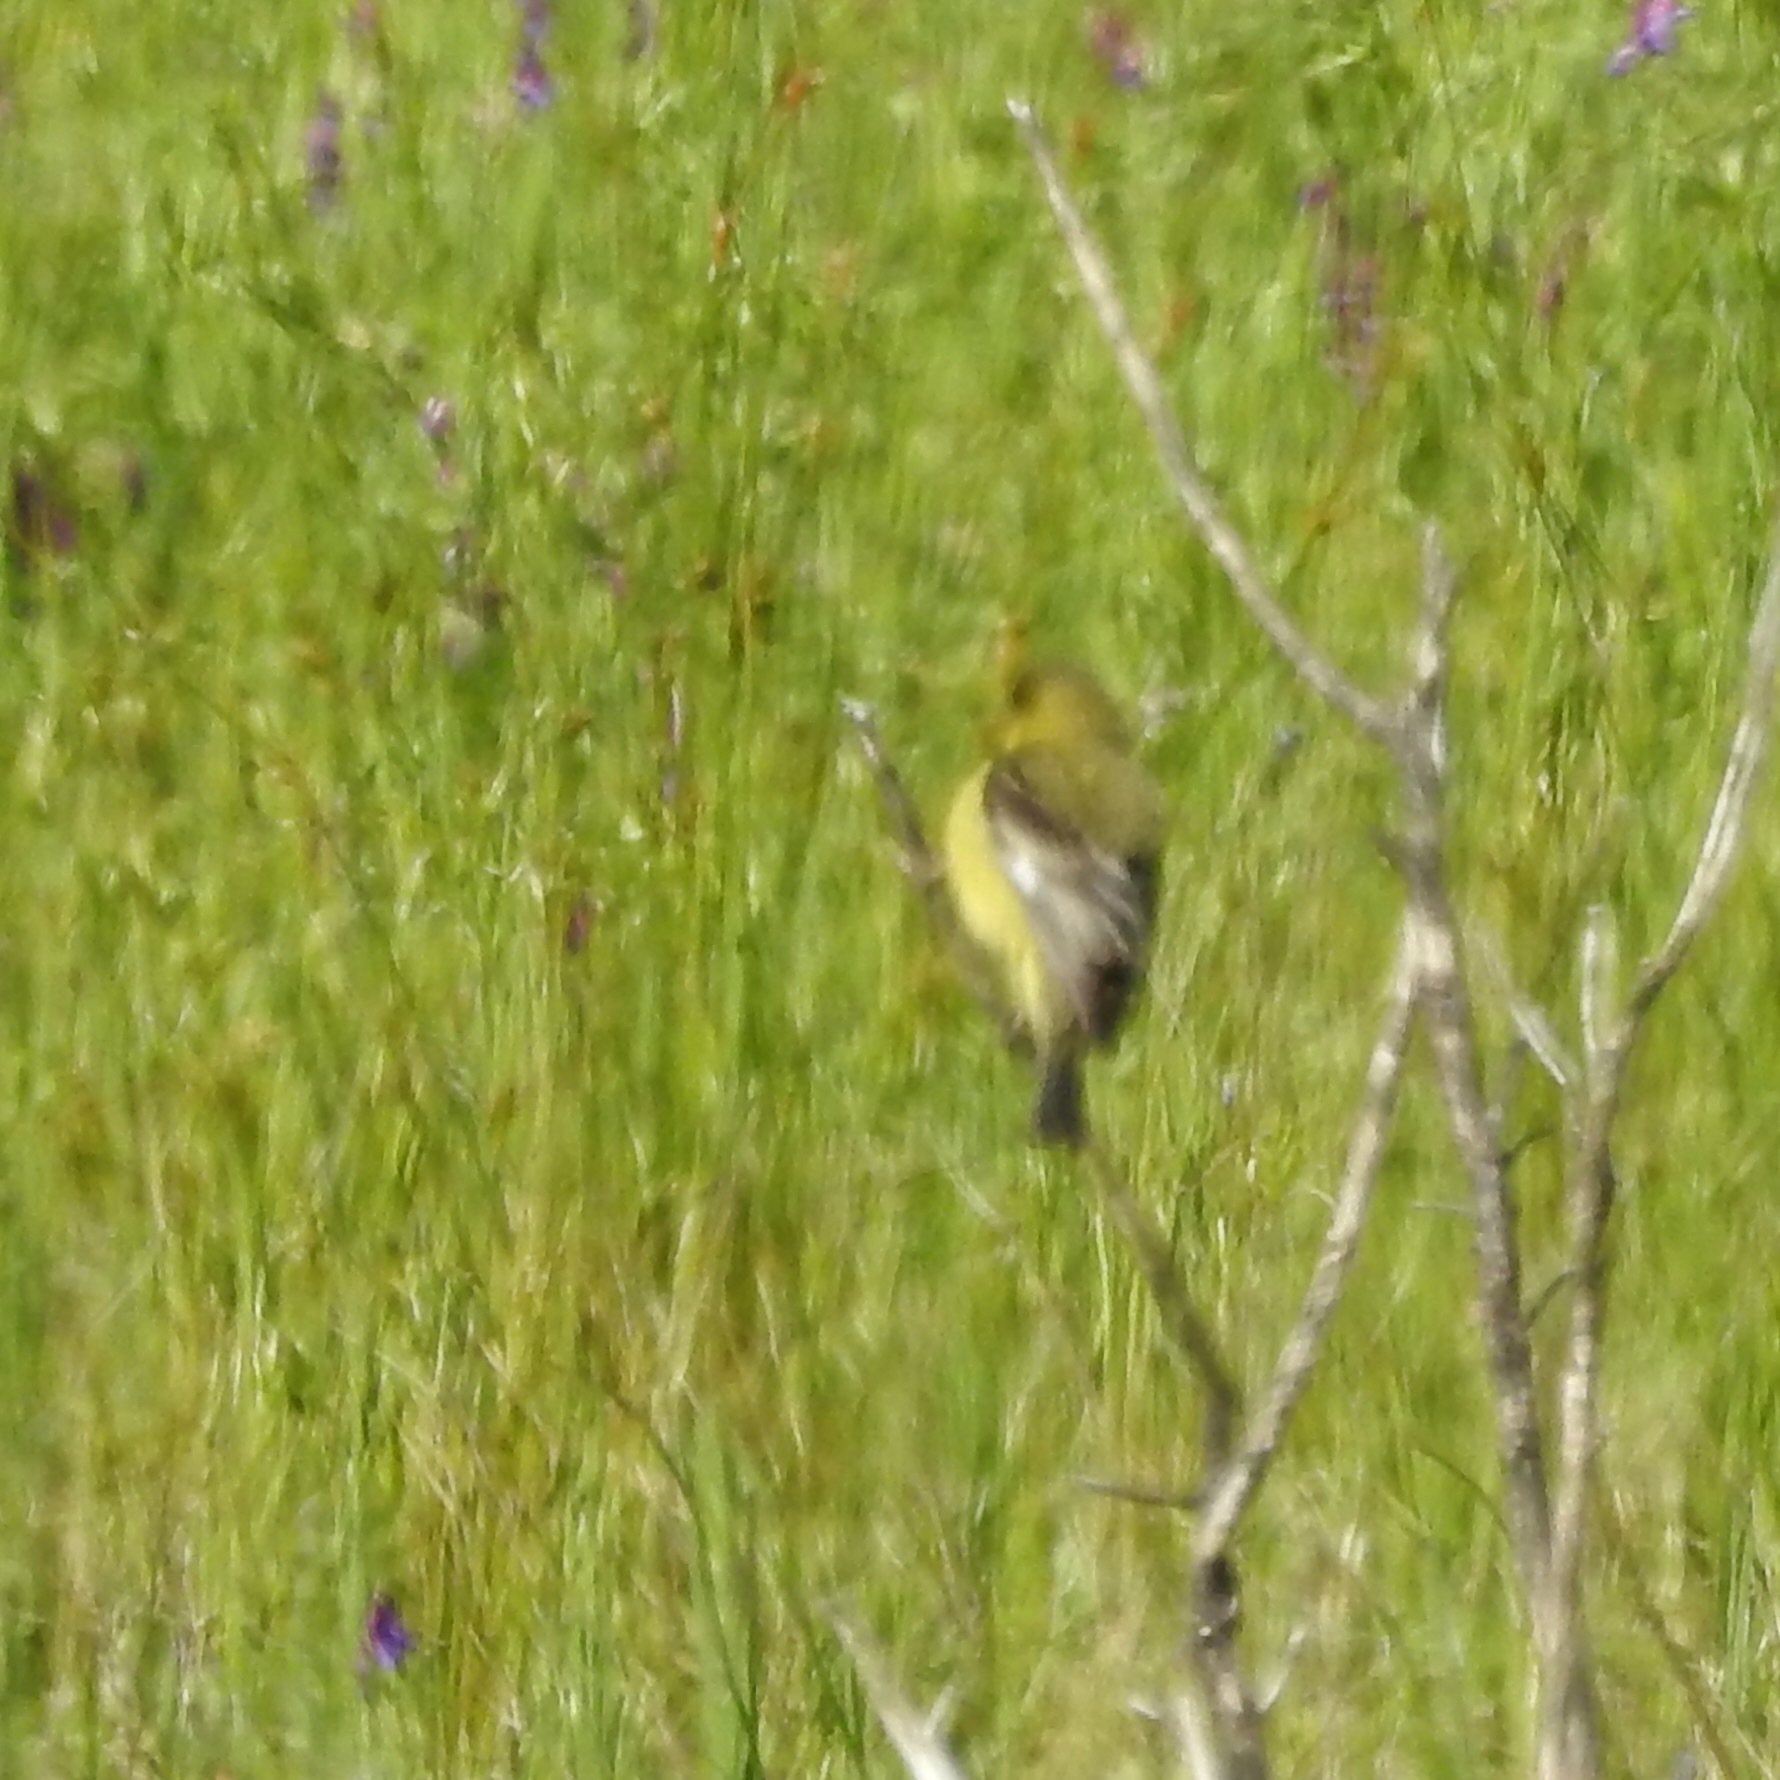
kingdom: Animalia
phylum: Chordata
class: Aves
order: Passeriformes
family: Fringillidae
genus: Spinus
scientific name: Spinus psaltria
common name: Lesser goldfinch
